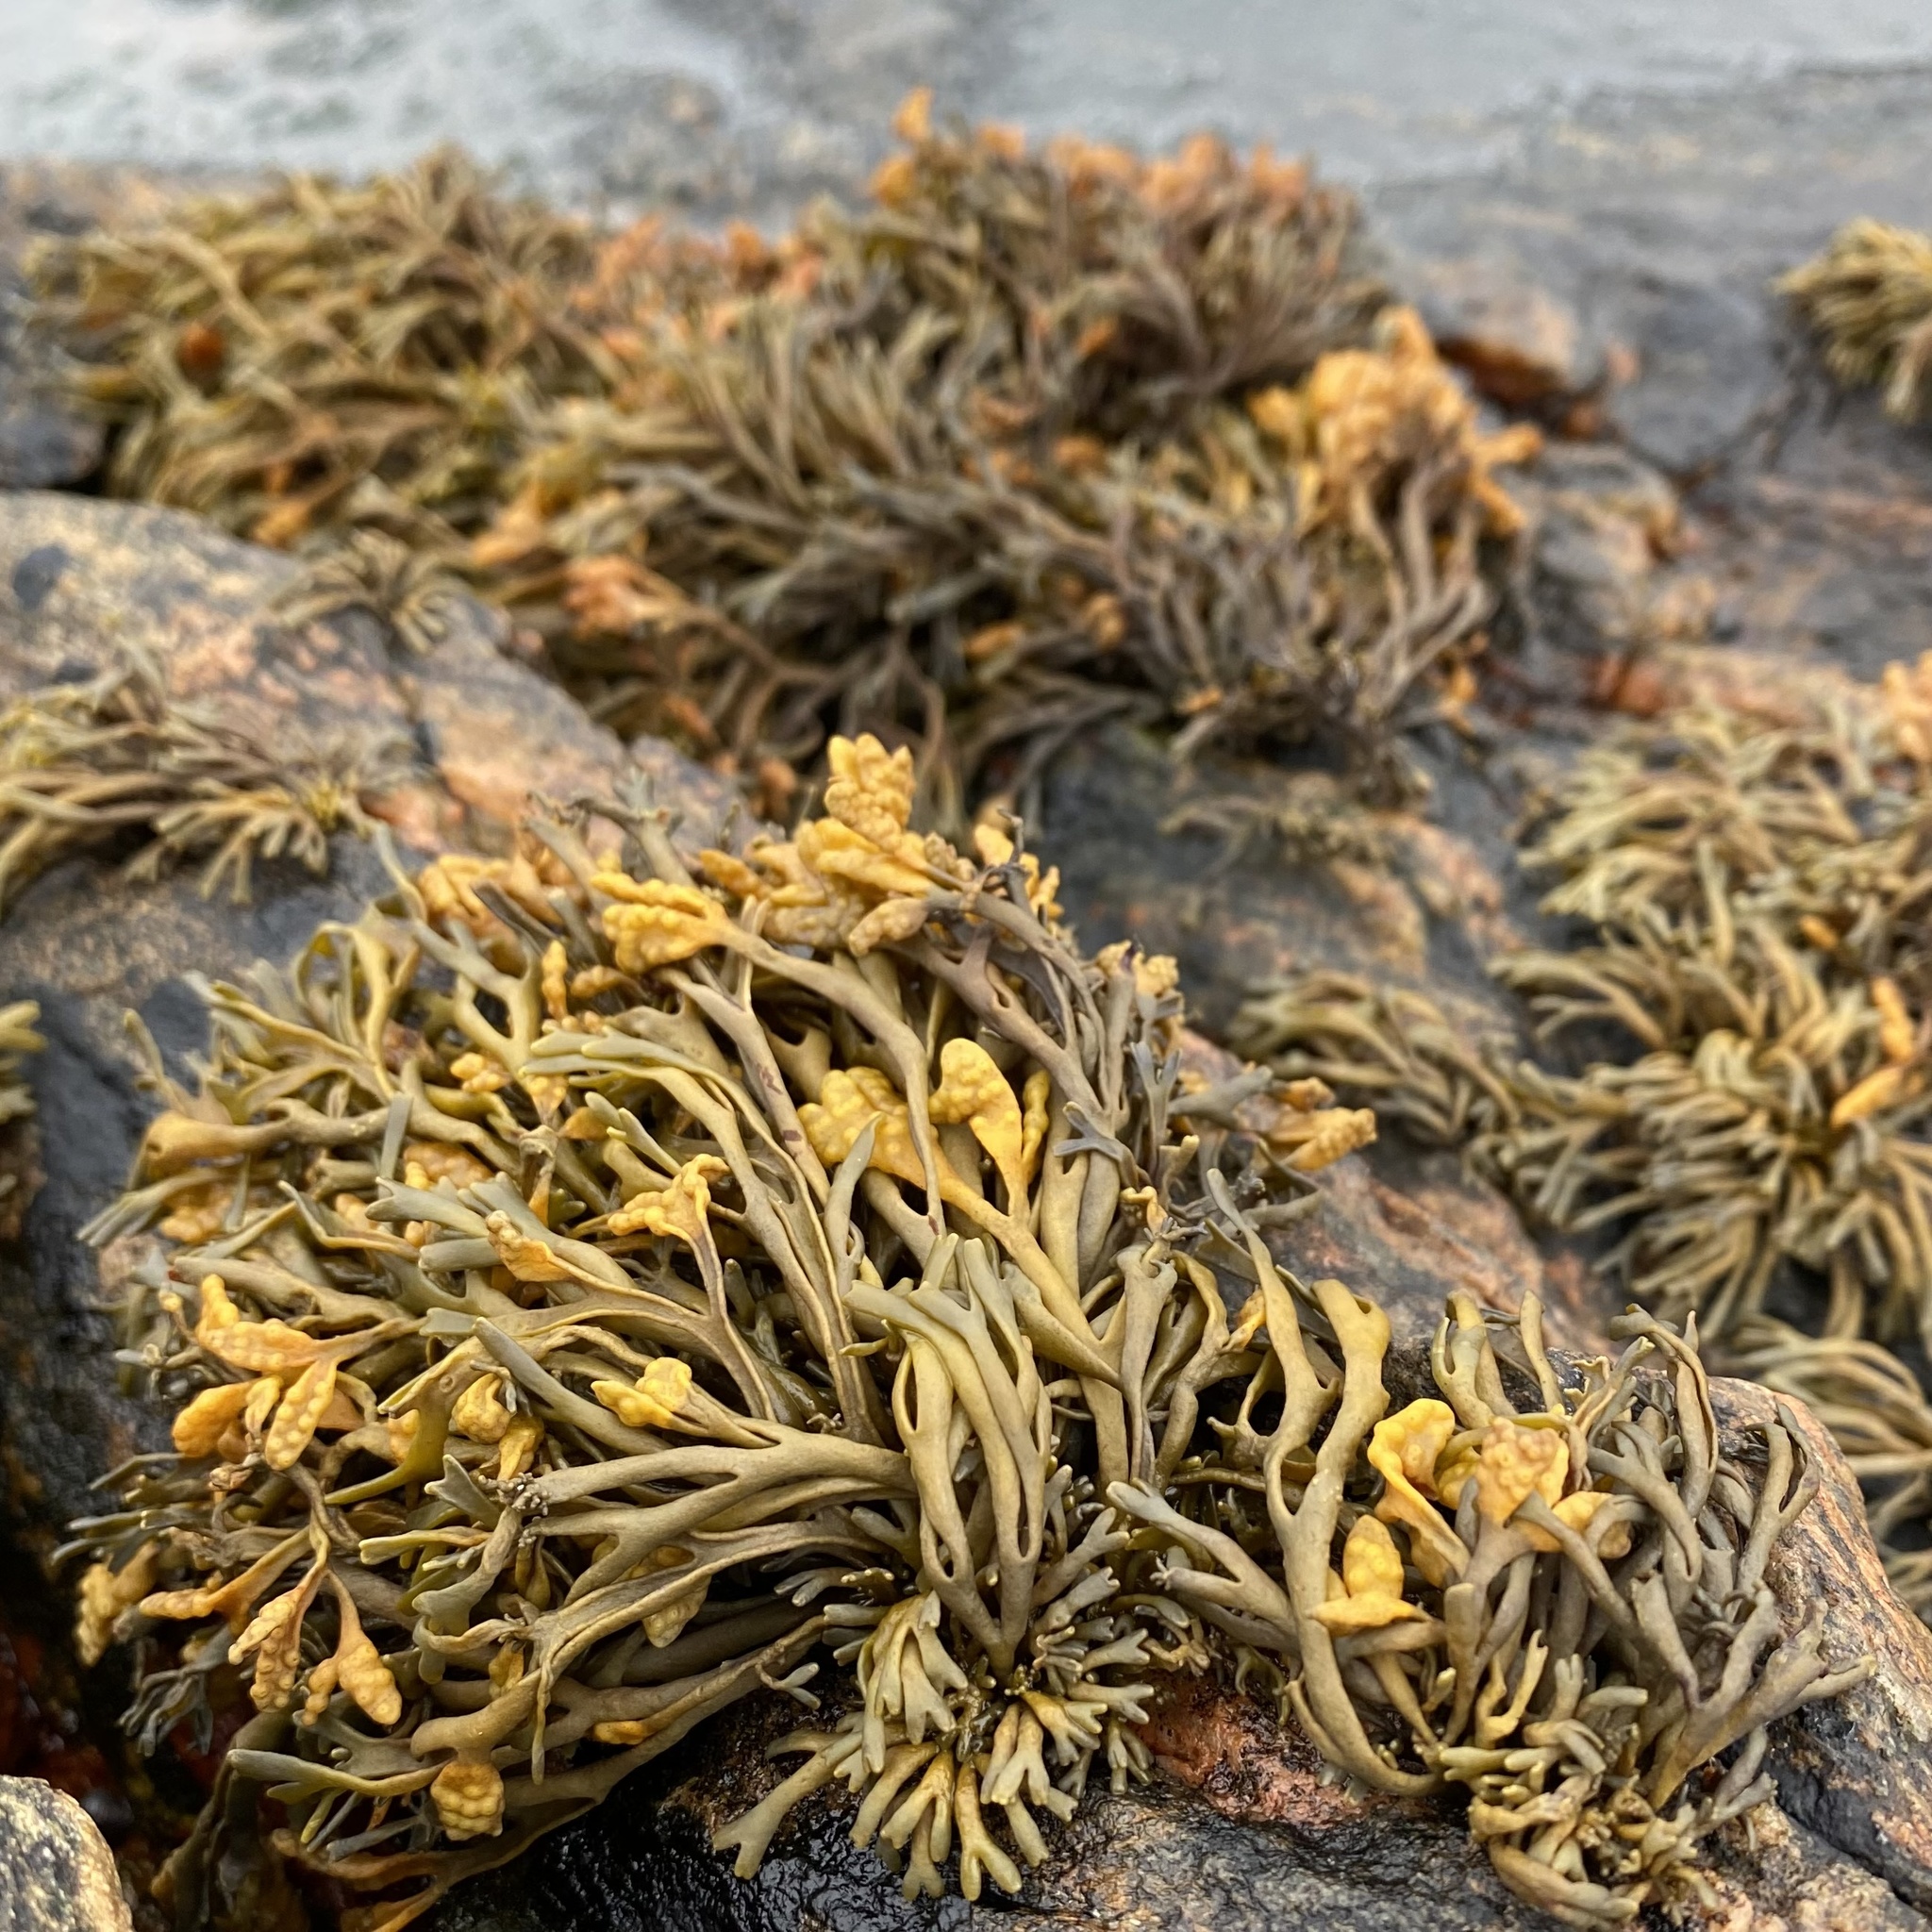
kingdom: Chromista
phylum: Ochrophyta
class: Phaeophyceae
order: Fucales
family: Fucaceae
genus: Pelvetia
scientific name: Pelvetia canaliculata
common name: Channelled wrack
